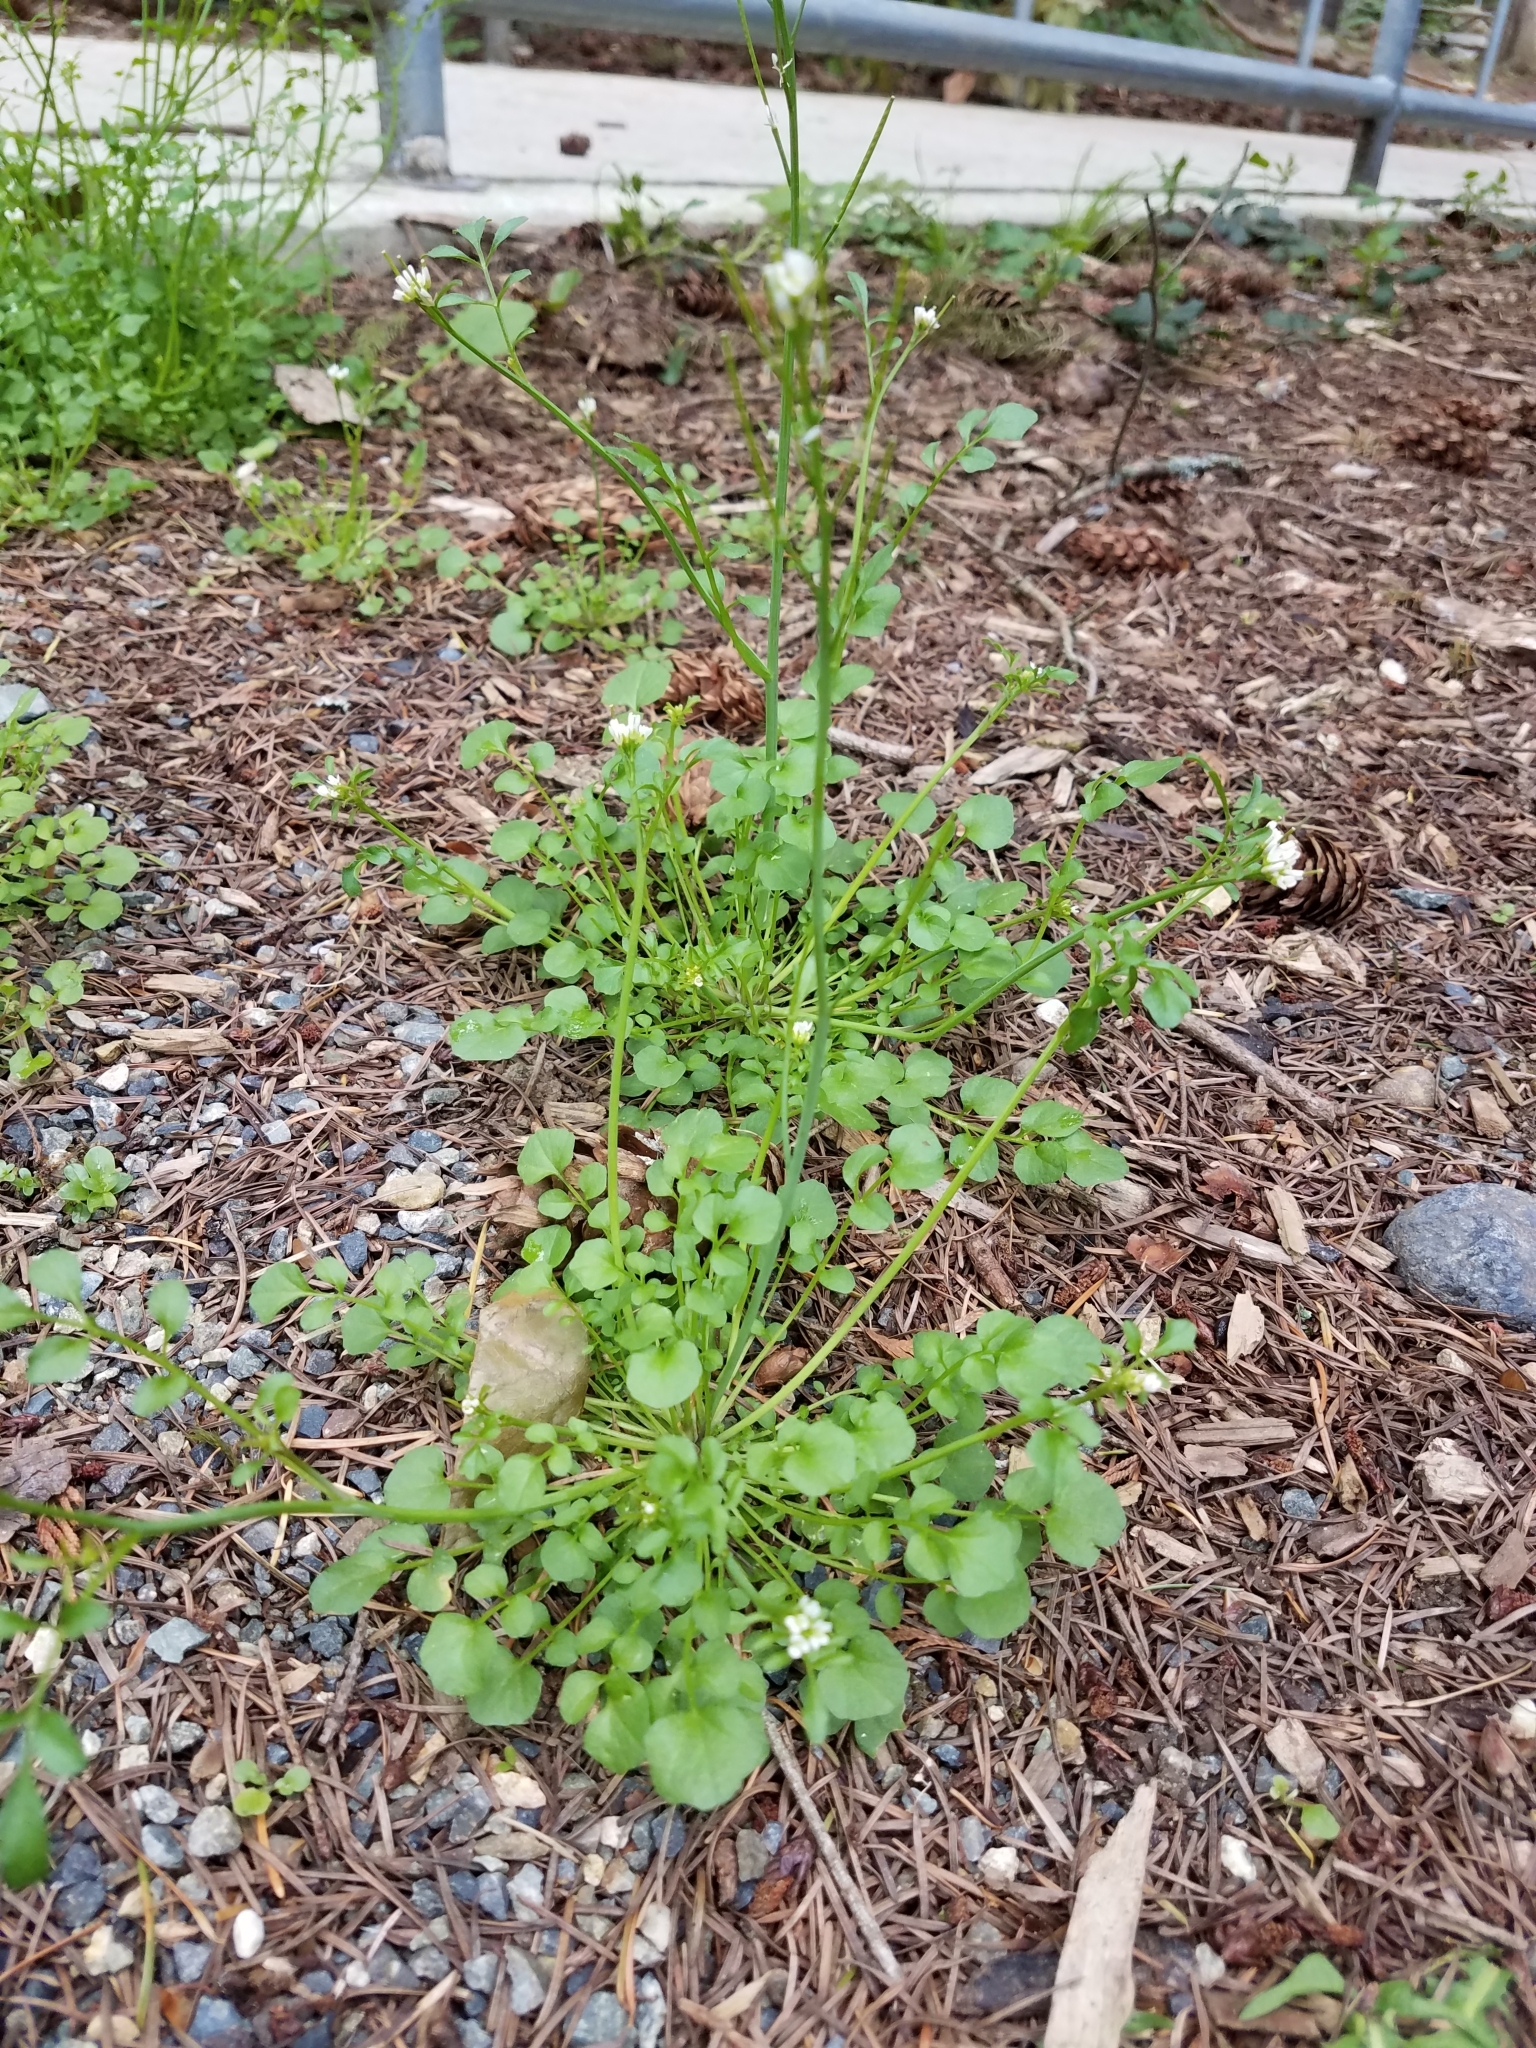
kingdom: Plantae
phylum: Tracheophyta
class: Magnoliopsida
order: Brassicales
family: Brassicaceae
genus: Cardamine
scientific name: Cardamine hirsuta
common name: Hairy bittercress
